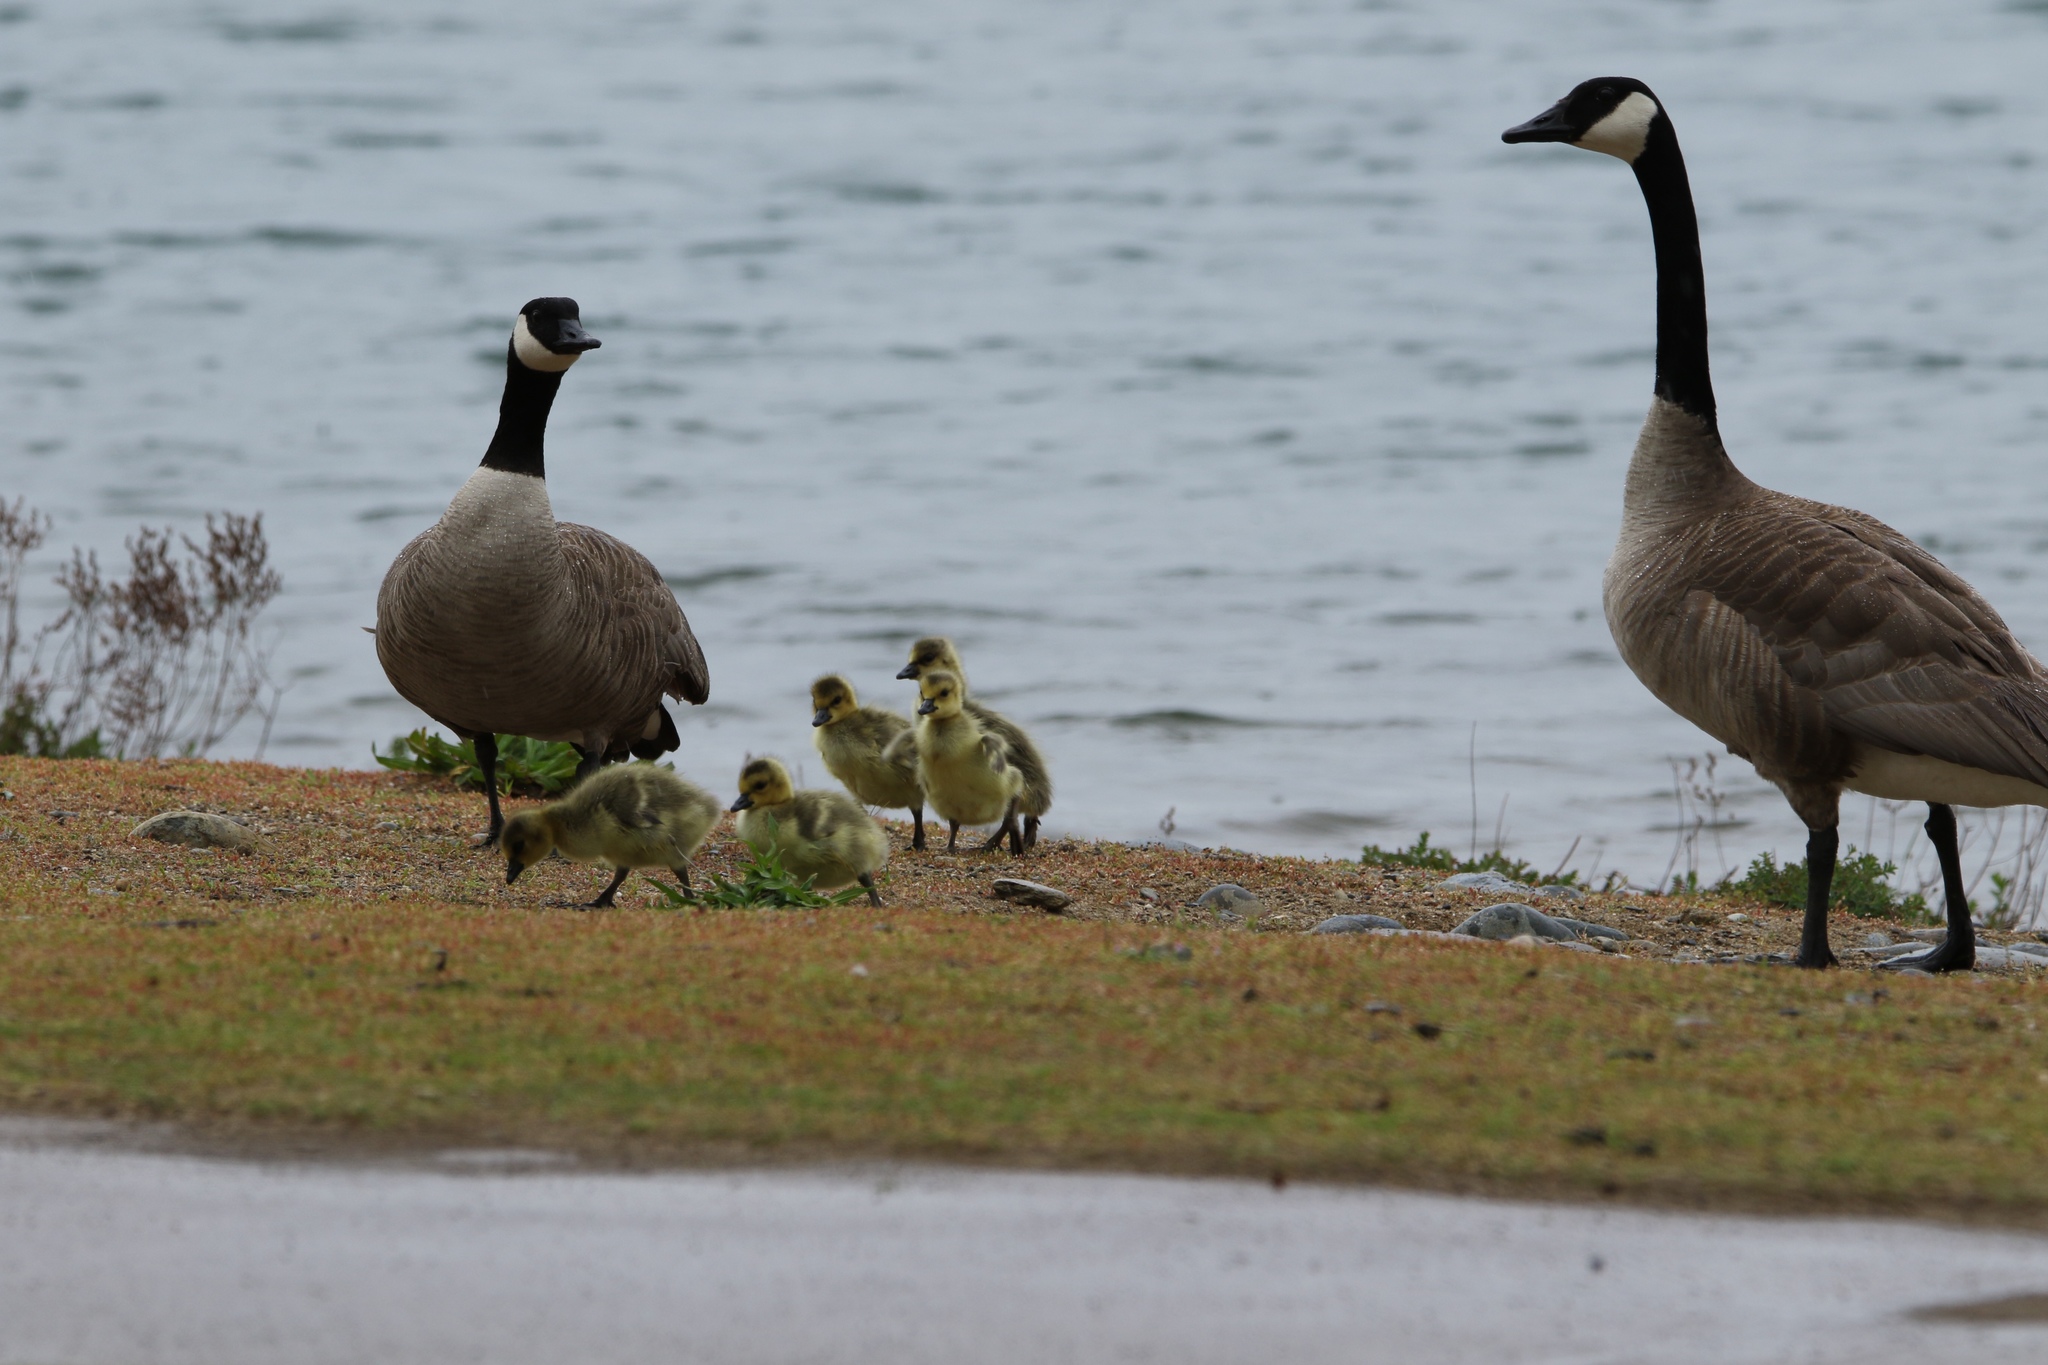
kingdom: Animalia
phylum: Chordata
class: Aves
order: Anseriformes
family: Anatidae
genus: Branta
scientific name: Branta canadensis
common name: Canada goose
